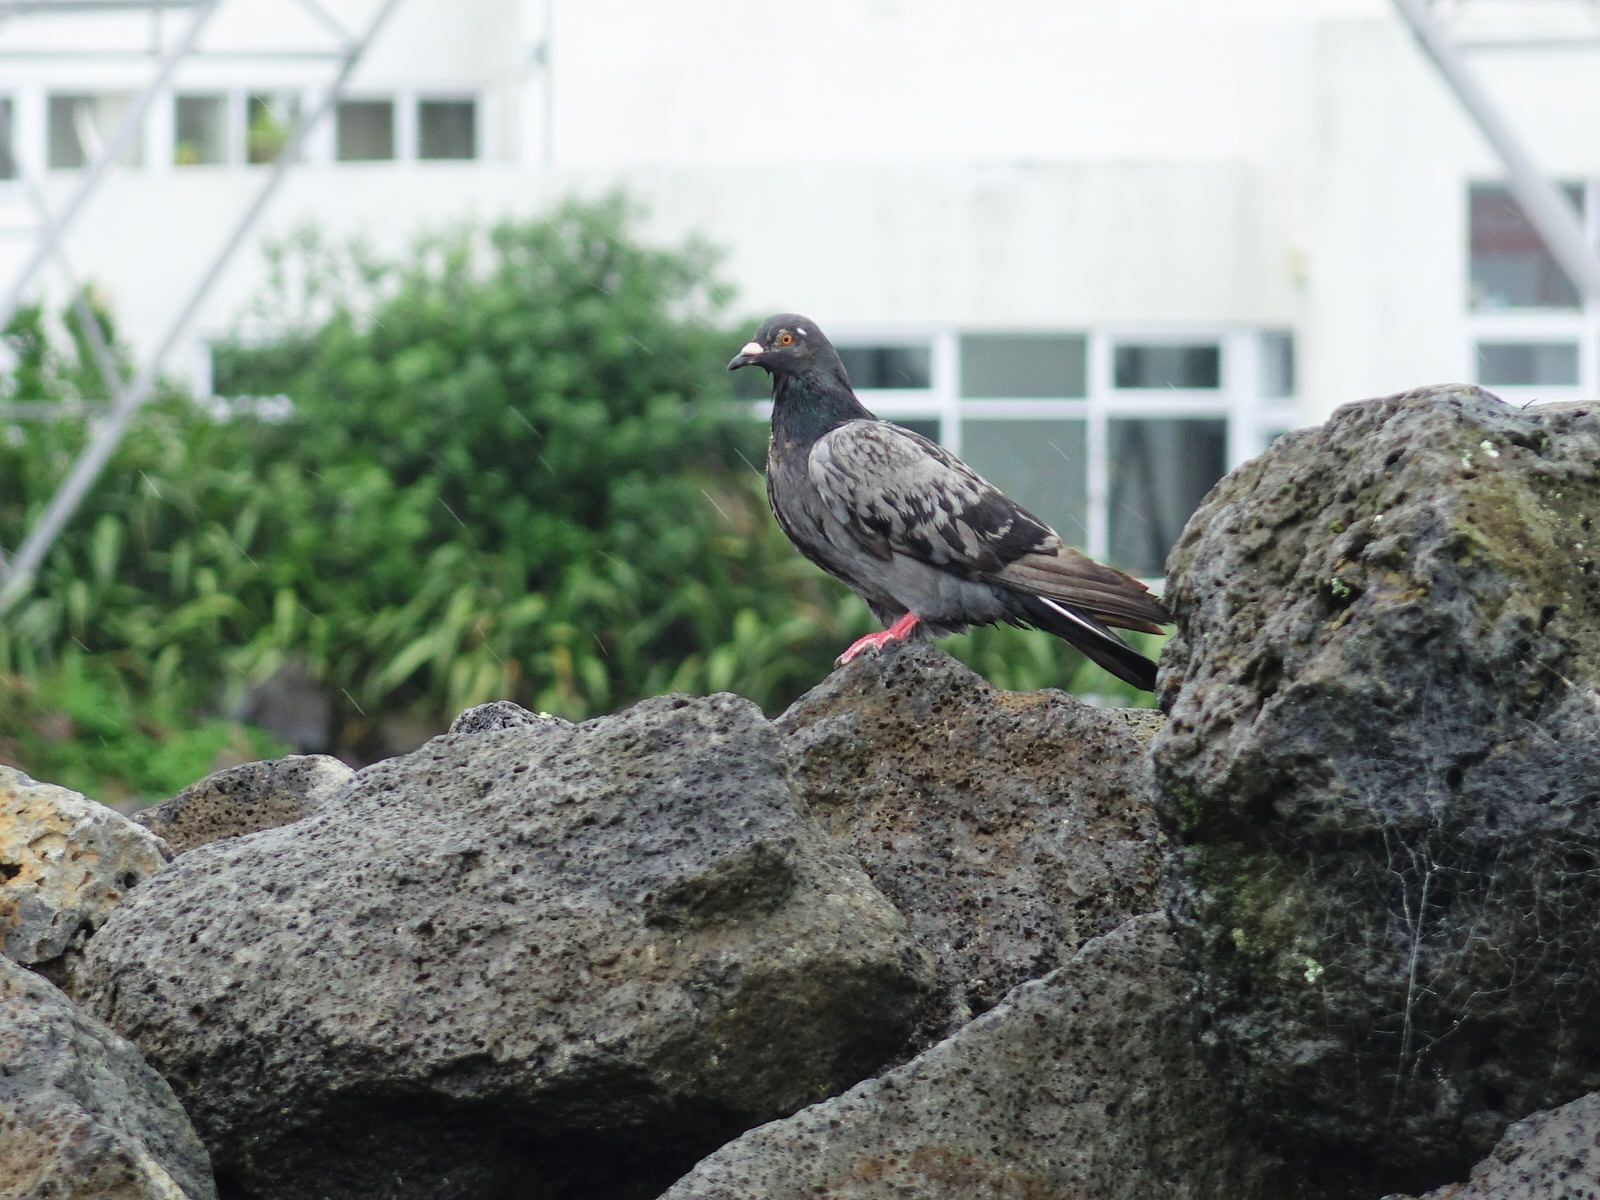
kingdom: Animalia
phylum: Chordata
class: Aves
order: Columbiformes
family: Columbidae
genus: Columba
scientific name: Columba livia
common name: Rock pigeon
